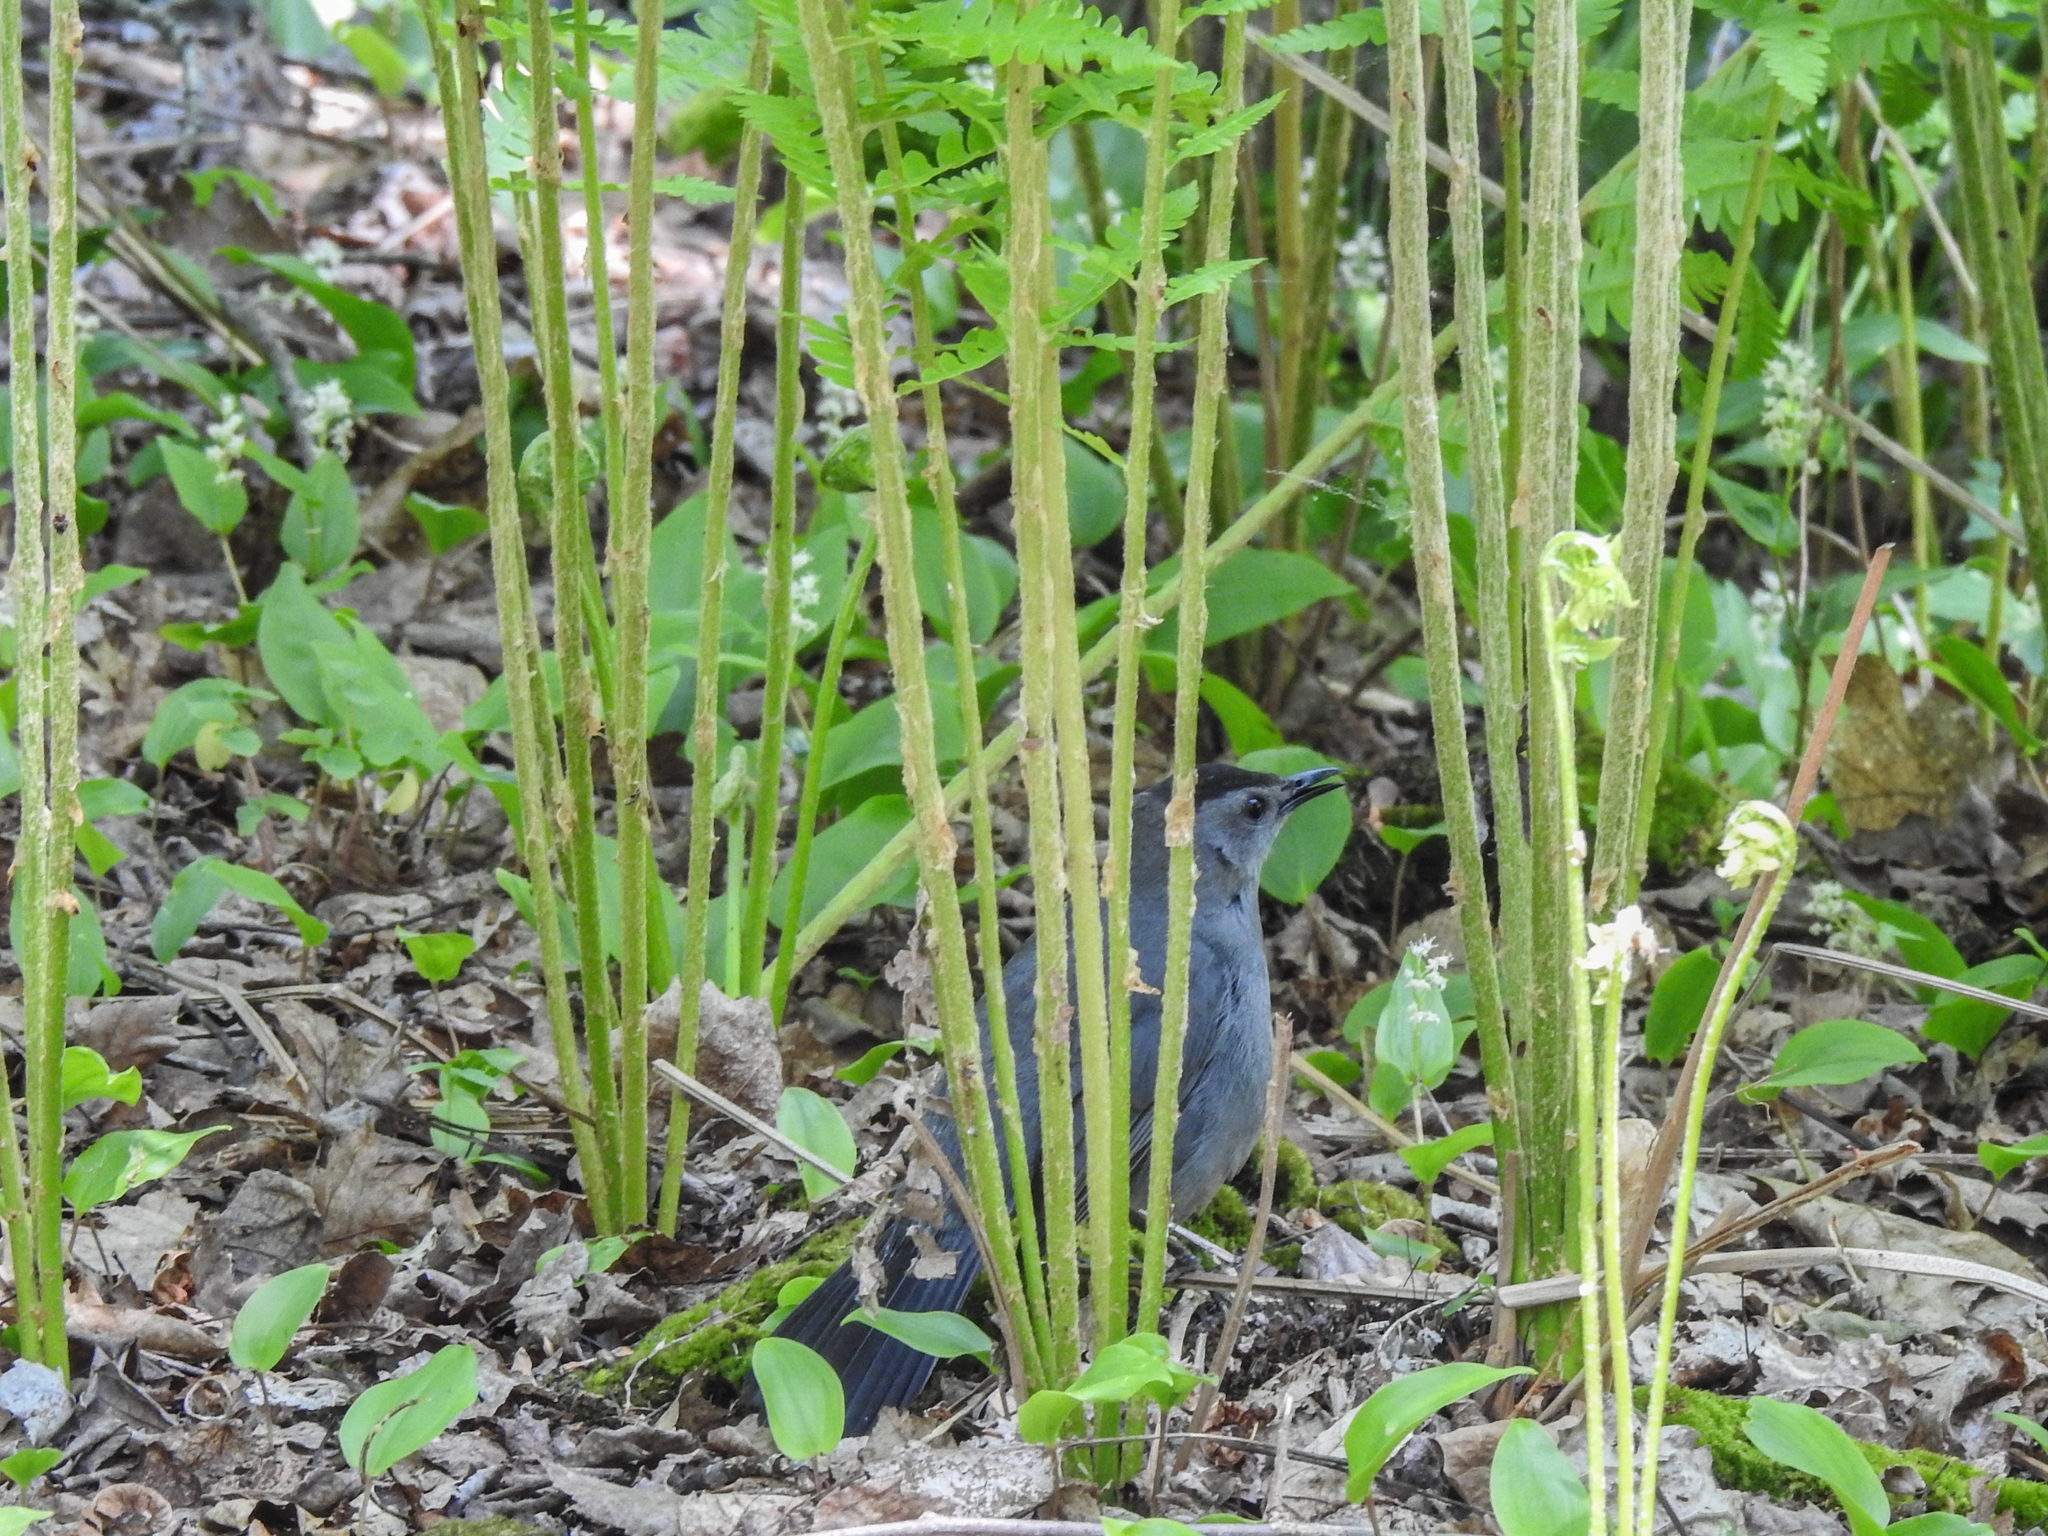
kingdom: Animalia
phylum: Chordata
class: Aves
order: Passeriformes
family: Mimidae
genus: Dumetella
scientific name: Dumetella carolinensis
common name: Gray catbird
